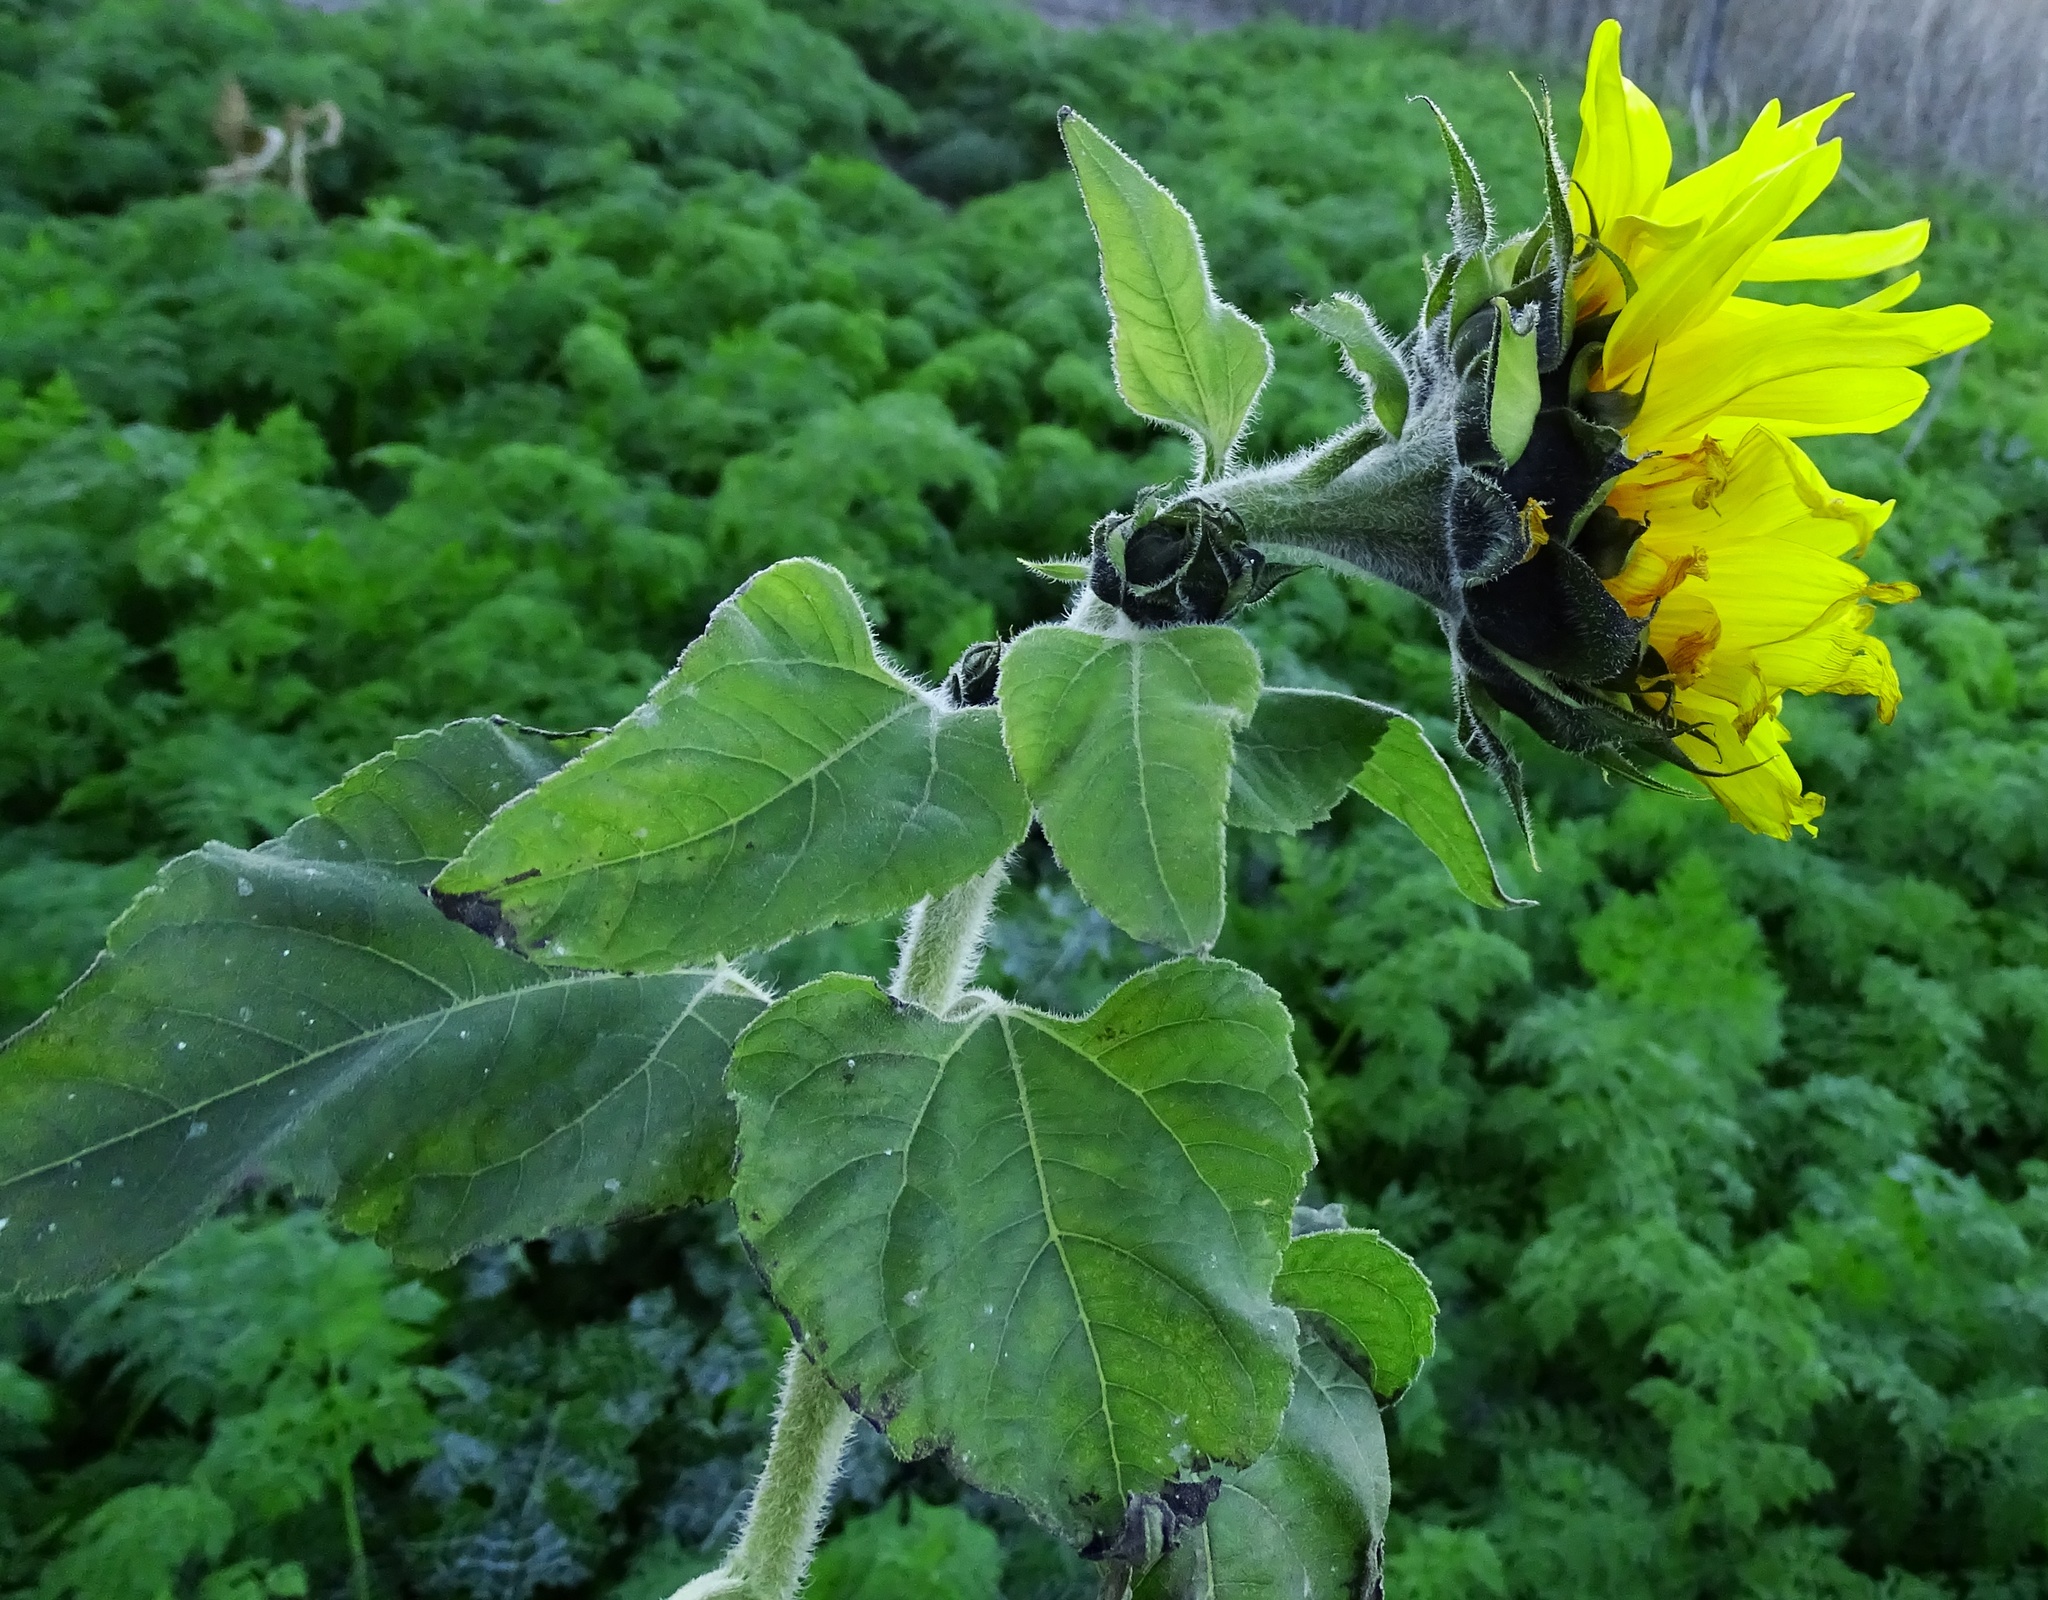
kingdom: Plantae
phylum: Tracheophyta
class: Magnoliopsida
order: Asterales
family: Asteraceae
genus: Helianthus
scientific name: Helianthus annuus
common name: Sunflower
